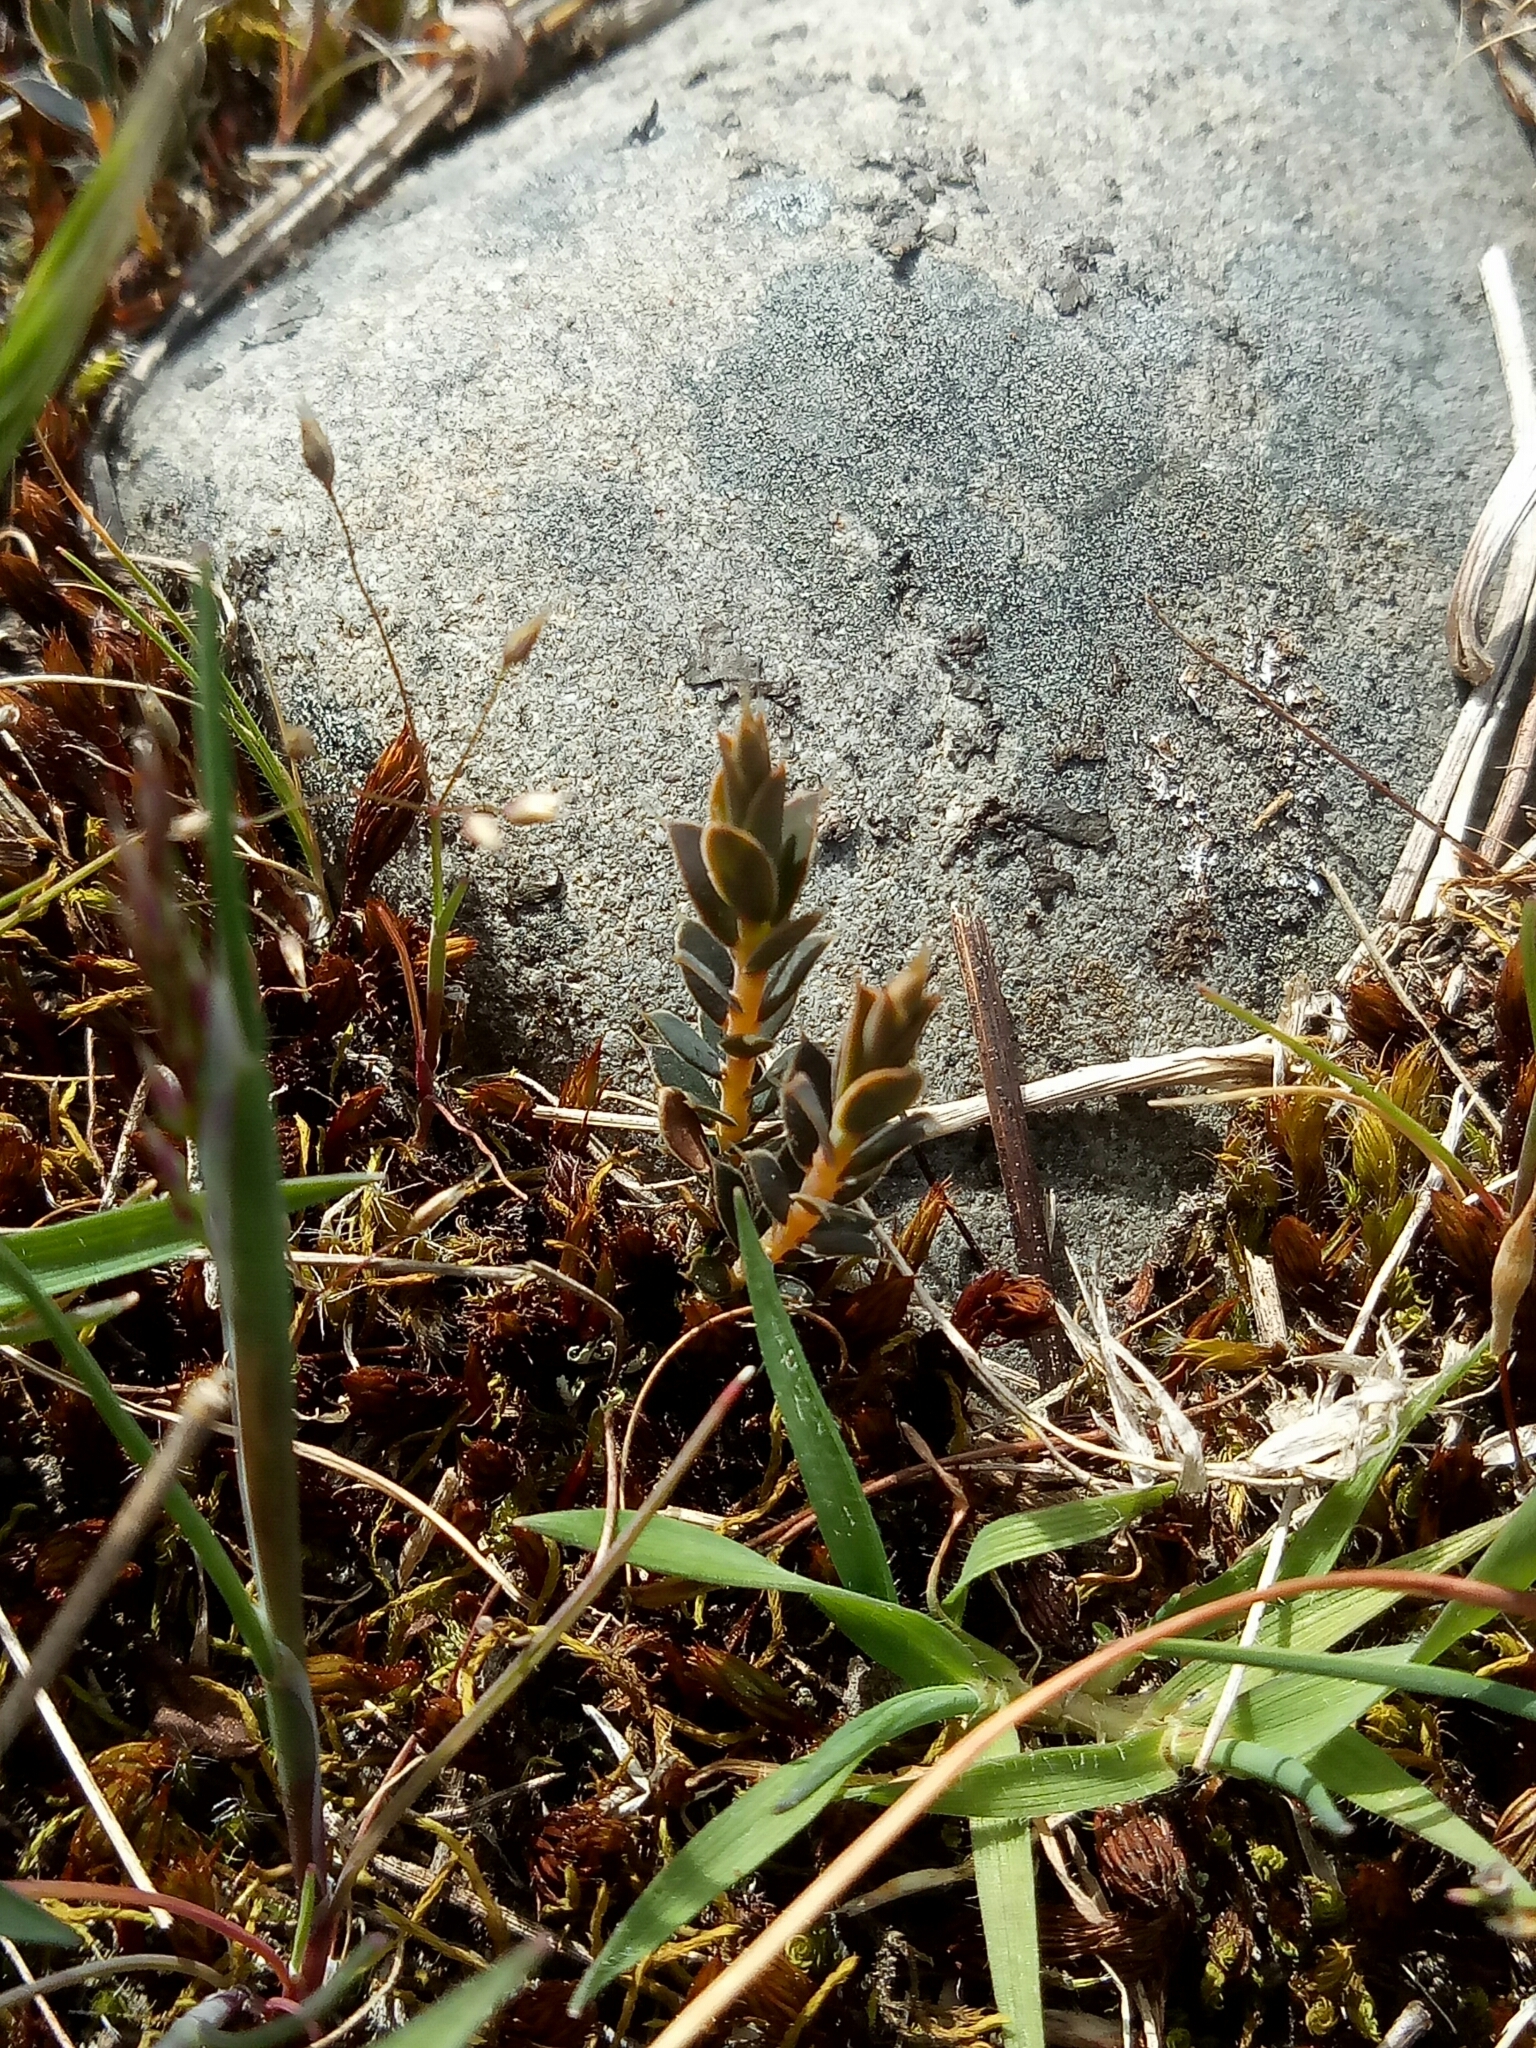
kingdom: Plantae
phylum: Tracheophyta
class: Magnoliopsida
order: Ericales
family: Ericaceae
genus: Styphelia
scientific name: Styphelia nesophila
